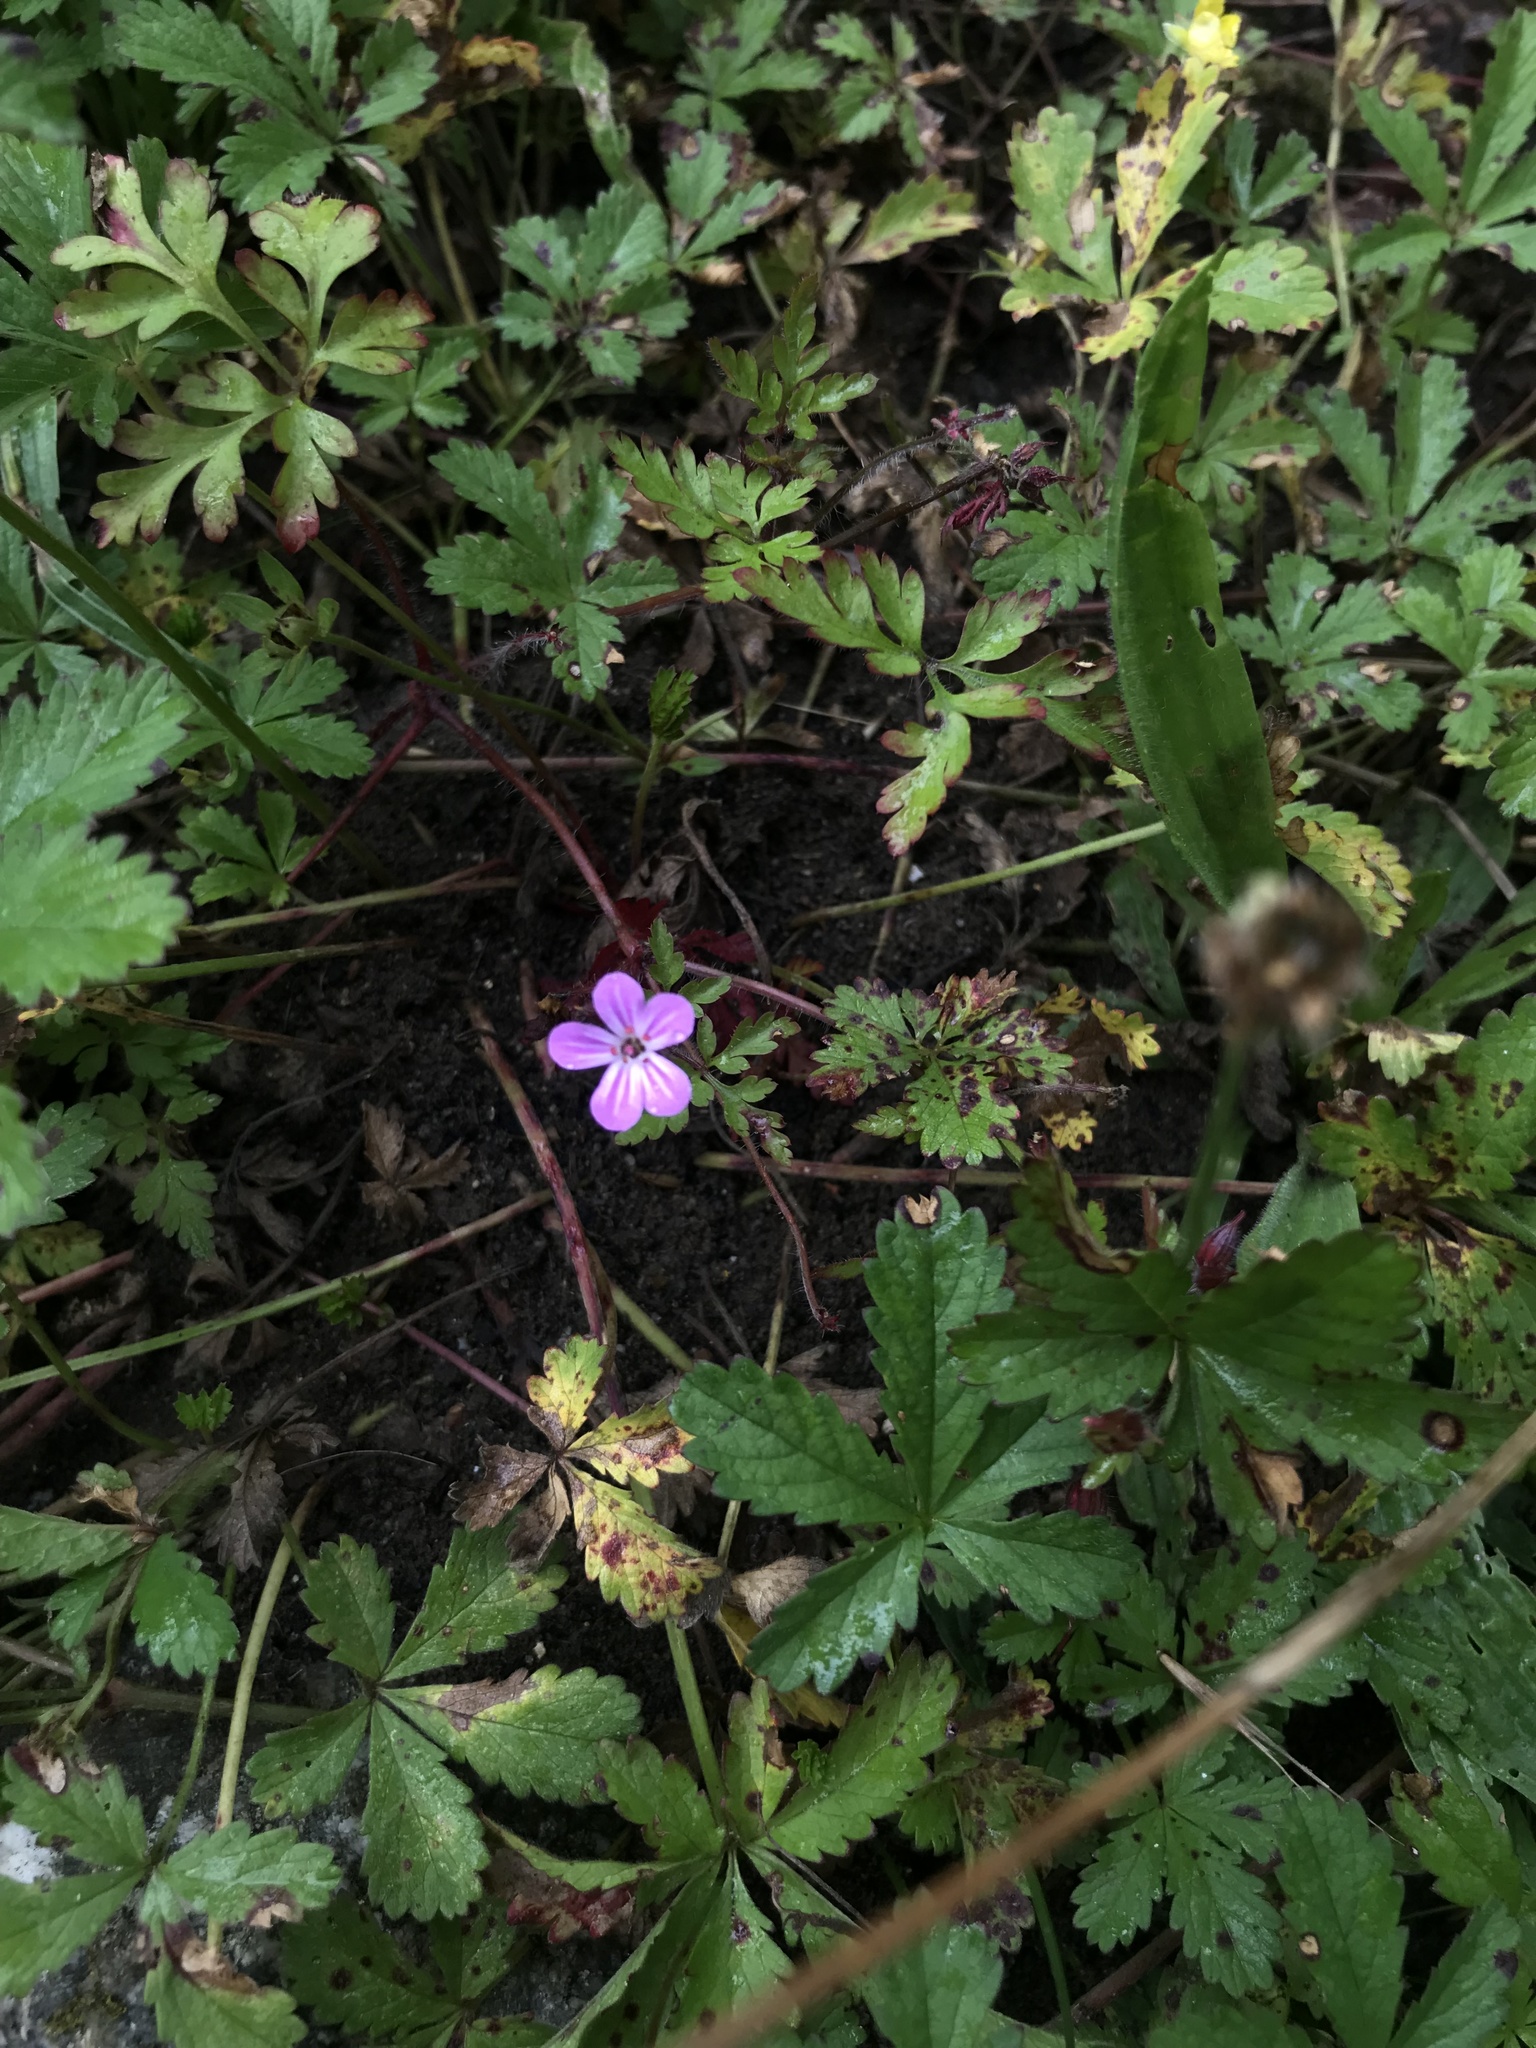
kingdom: Plantae
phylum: Tracheophyta
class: Magnoliopsida
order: Geraniales
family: Geraniaceae
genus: Geranium
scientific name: Geranium robertianum
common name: Herb-robert
